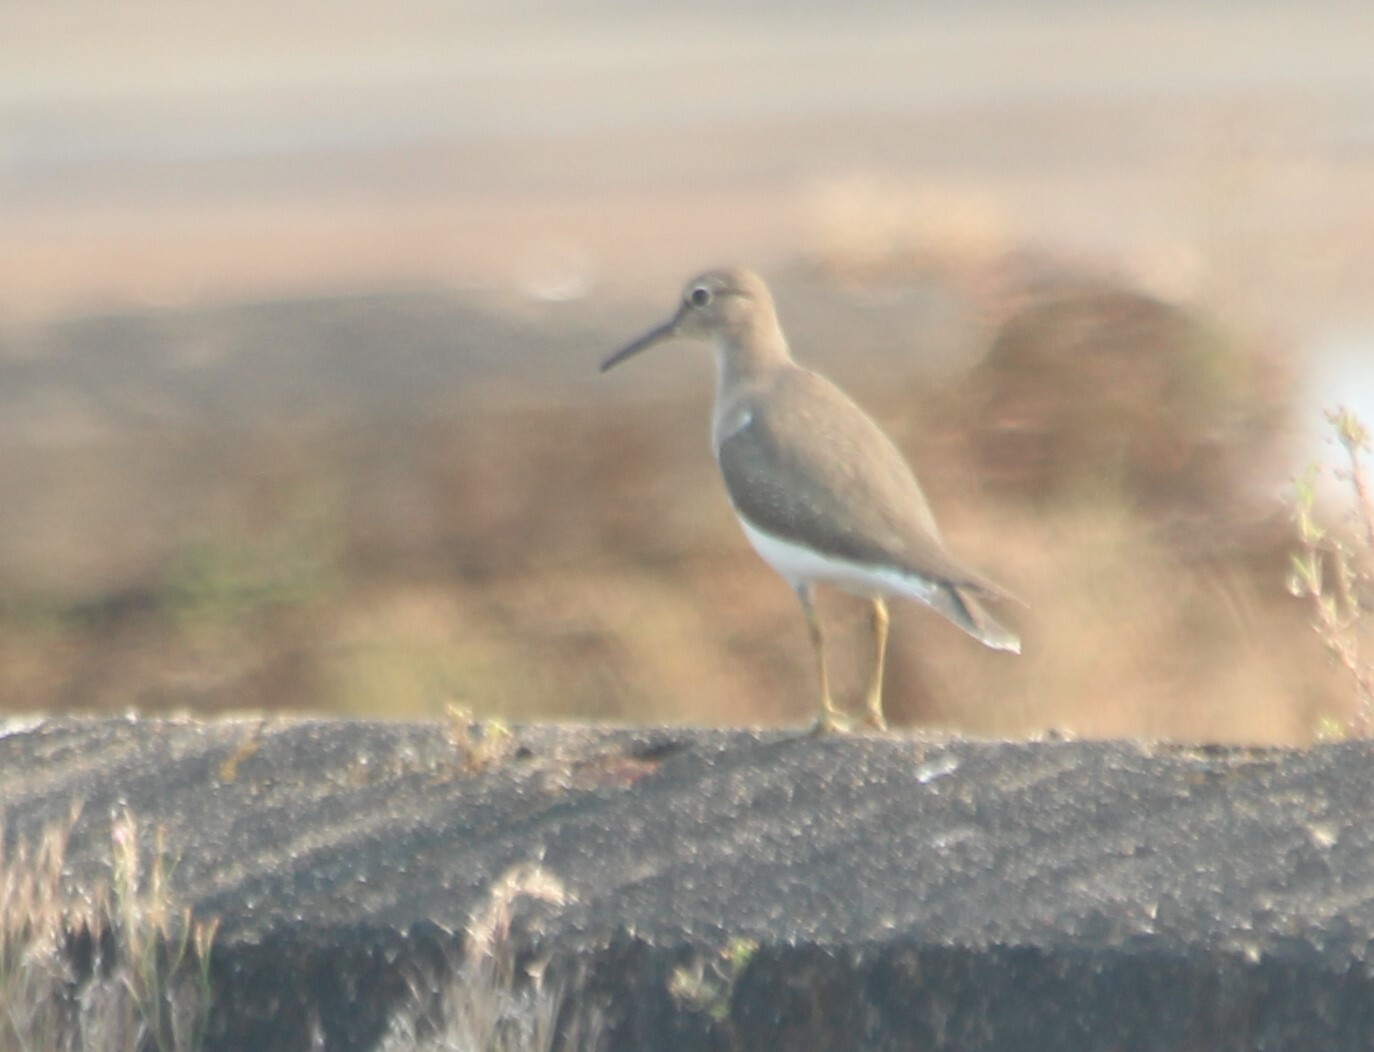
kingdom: Animalia
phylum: Chordata
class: Aves
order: Charadriiformes
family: Scolopacidae
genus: Actitis
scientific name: Actitis hypoleucos
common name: Common sandpiper
